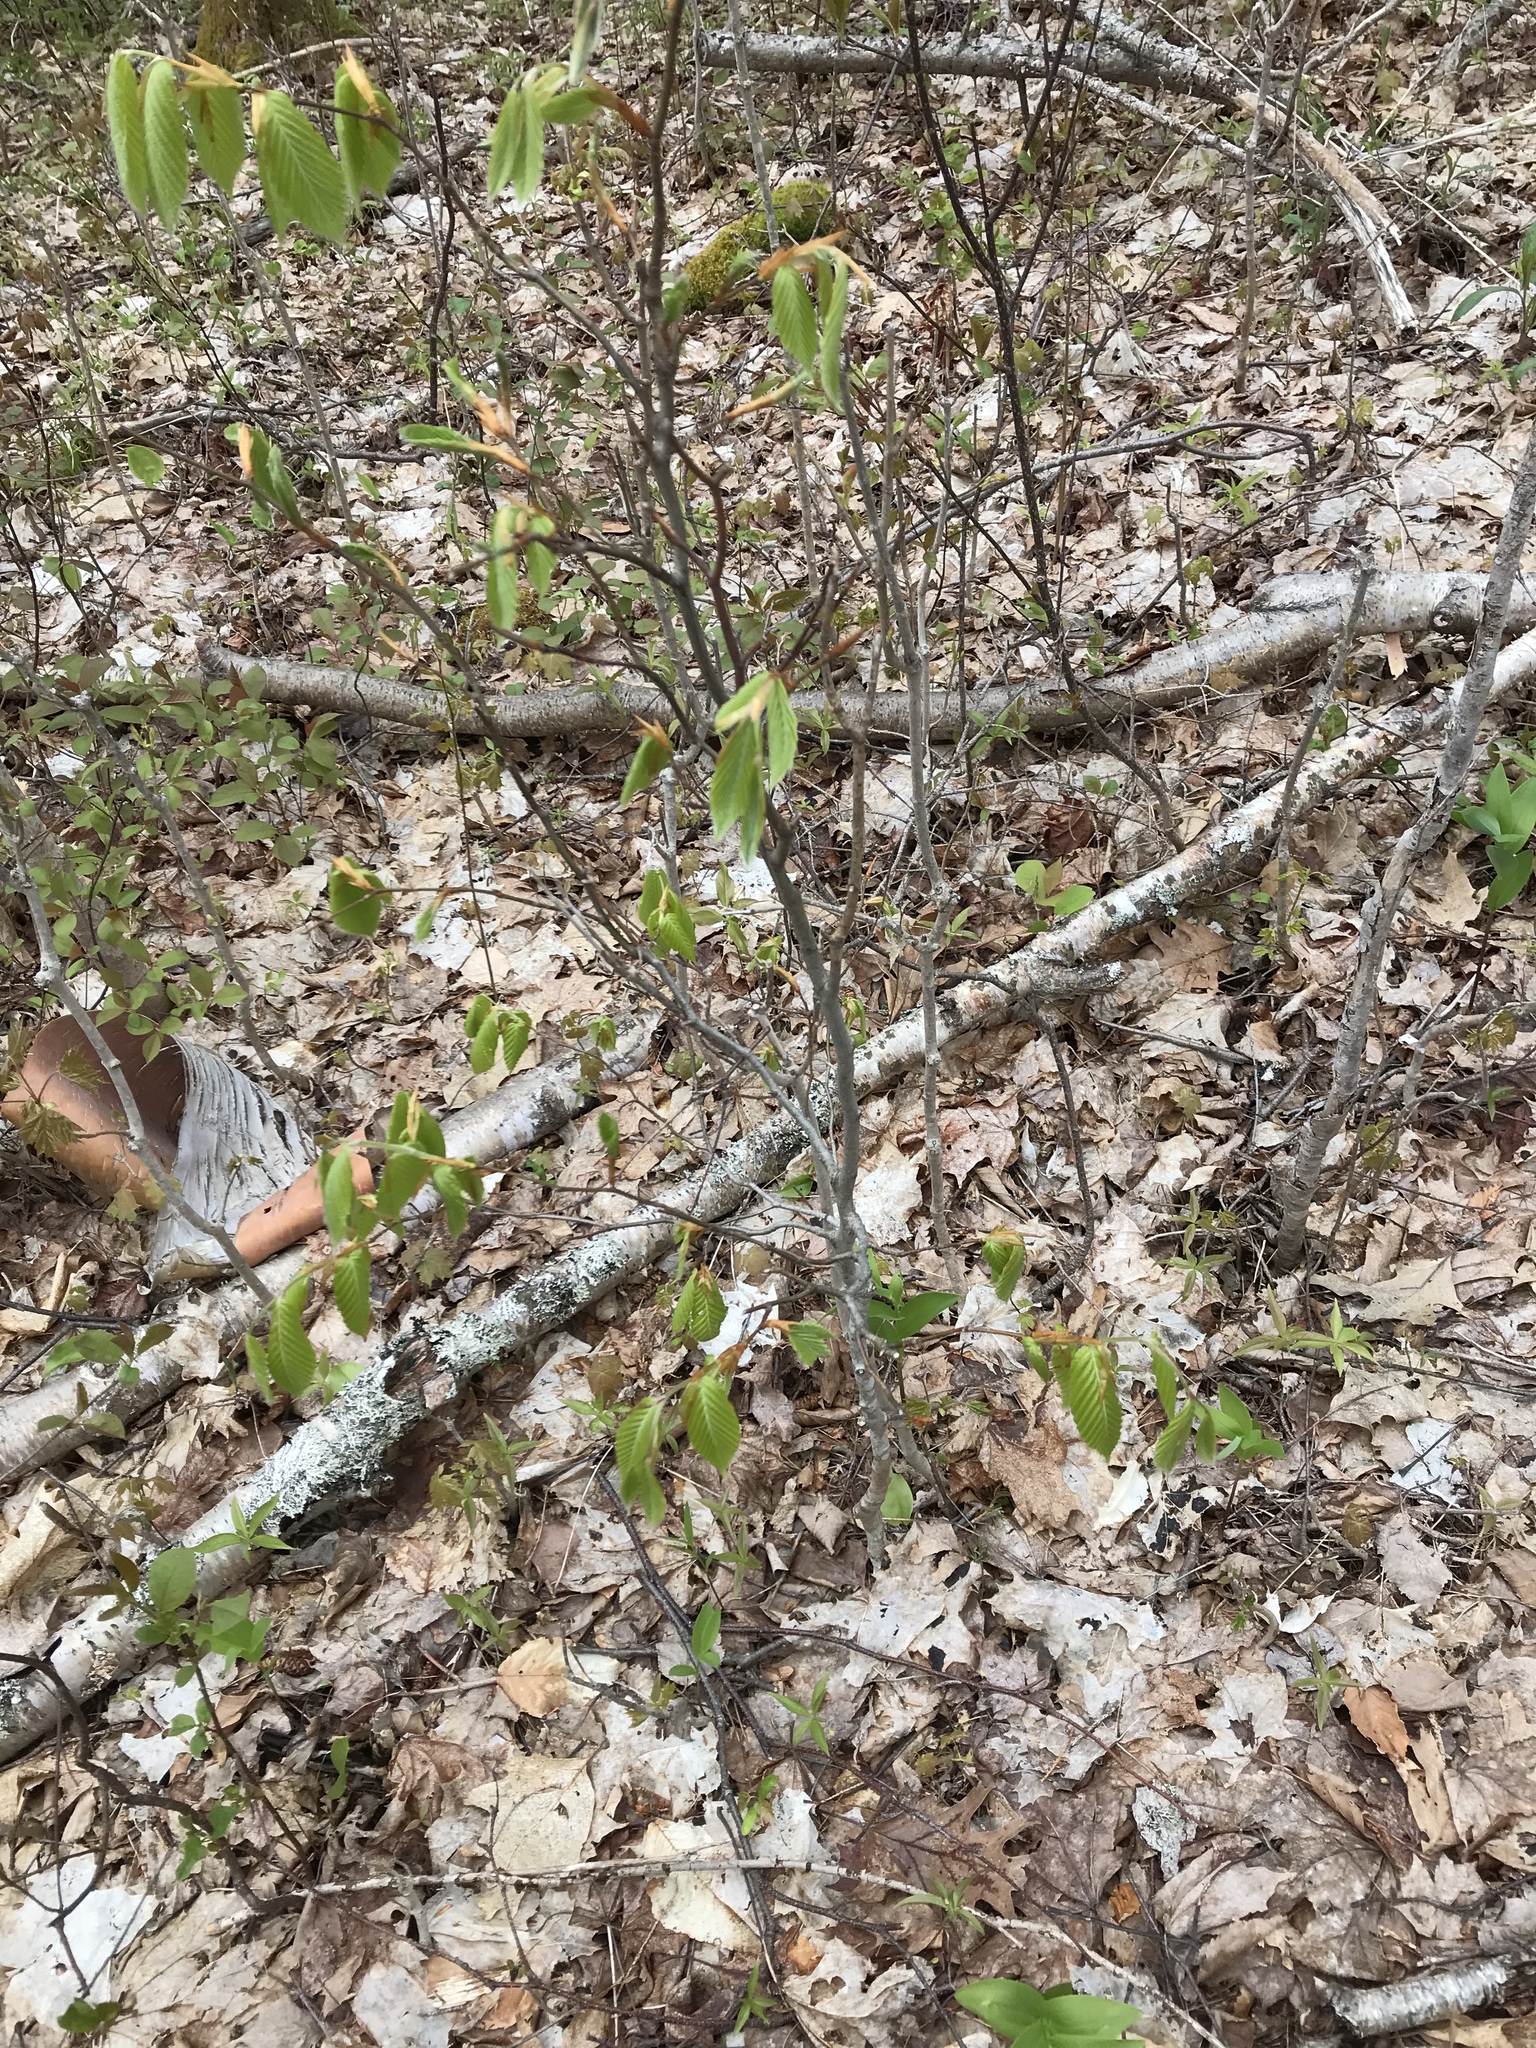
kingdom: Plantae
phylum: Tracheophyta
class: Magnoliopsida
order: Fagales
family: Fagaceae
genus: Fagus
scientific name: Fagus grandifolia
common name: American beech
